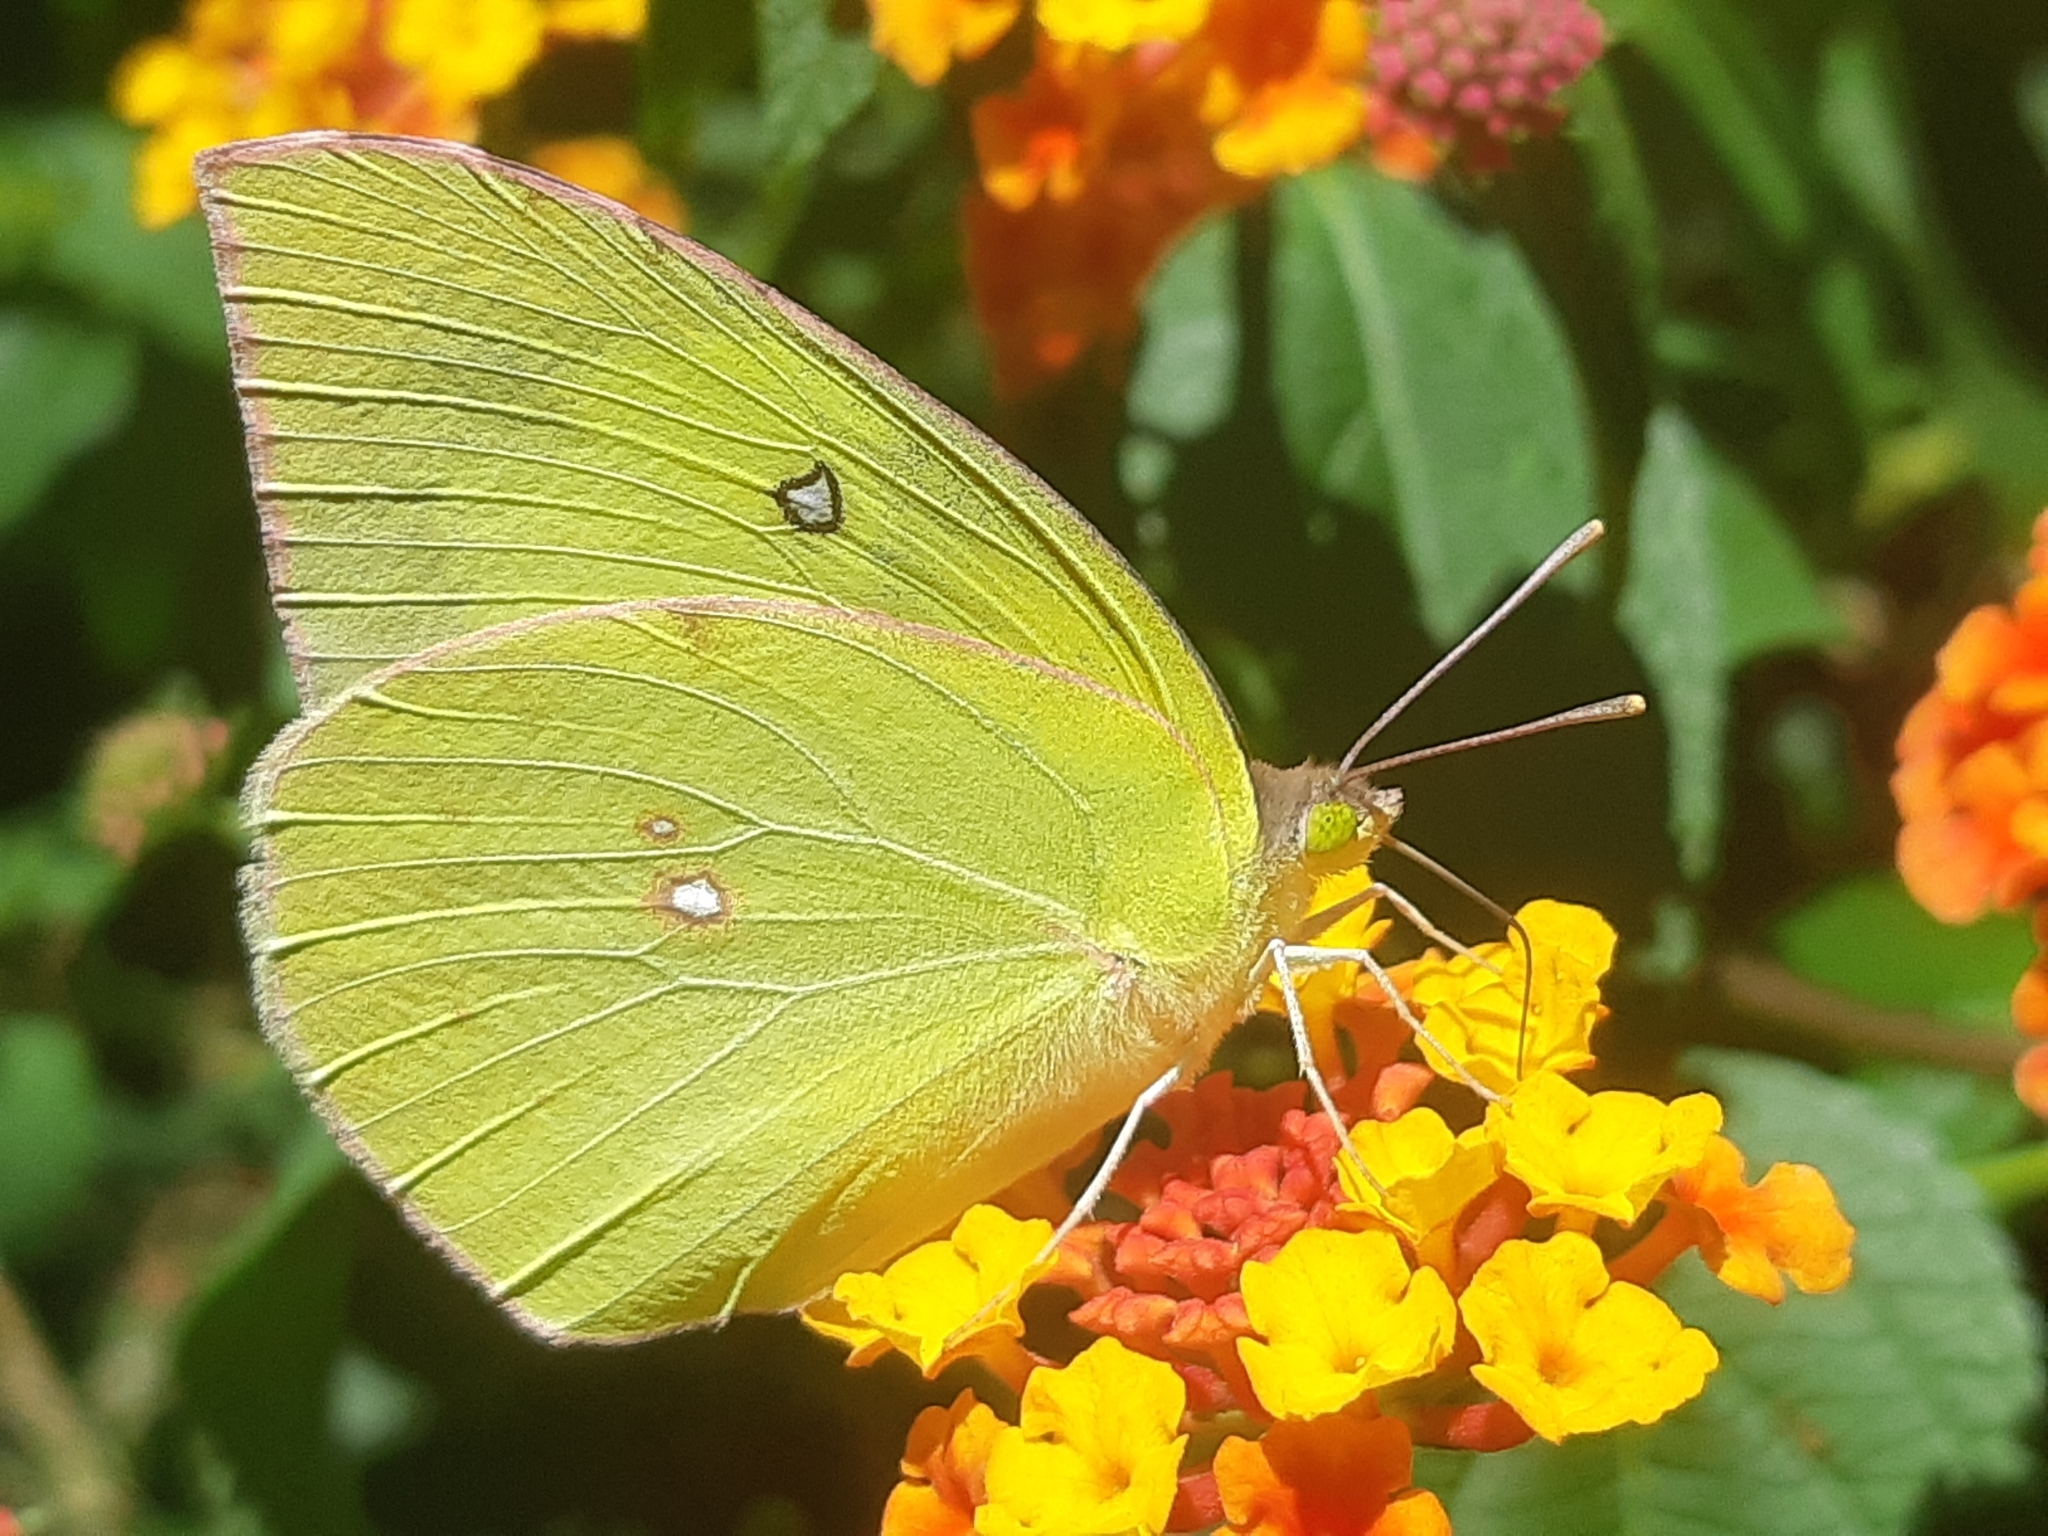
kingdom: Animalia
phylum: Arthropoda
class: Insecta
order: Lepidoptera
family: Pieridae
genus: Zerene
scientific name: Zerene cesonia
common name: Southern dogface
